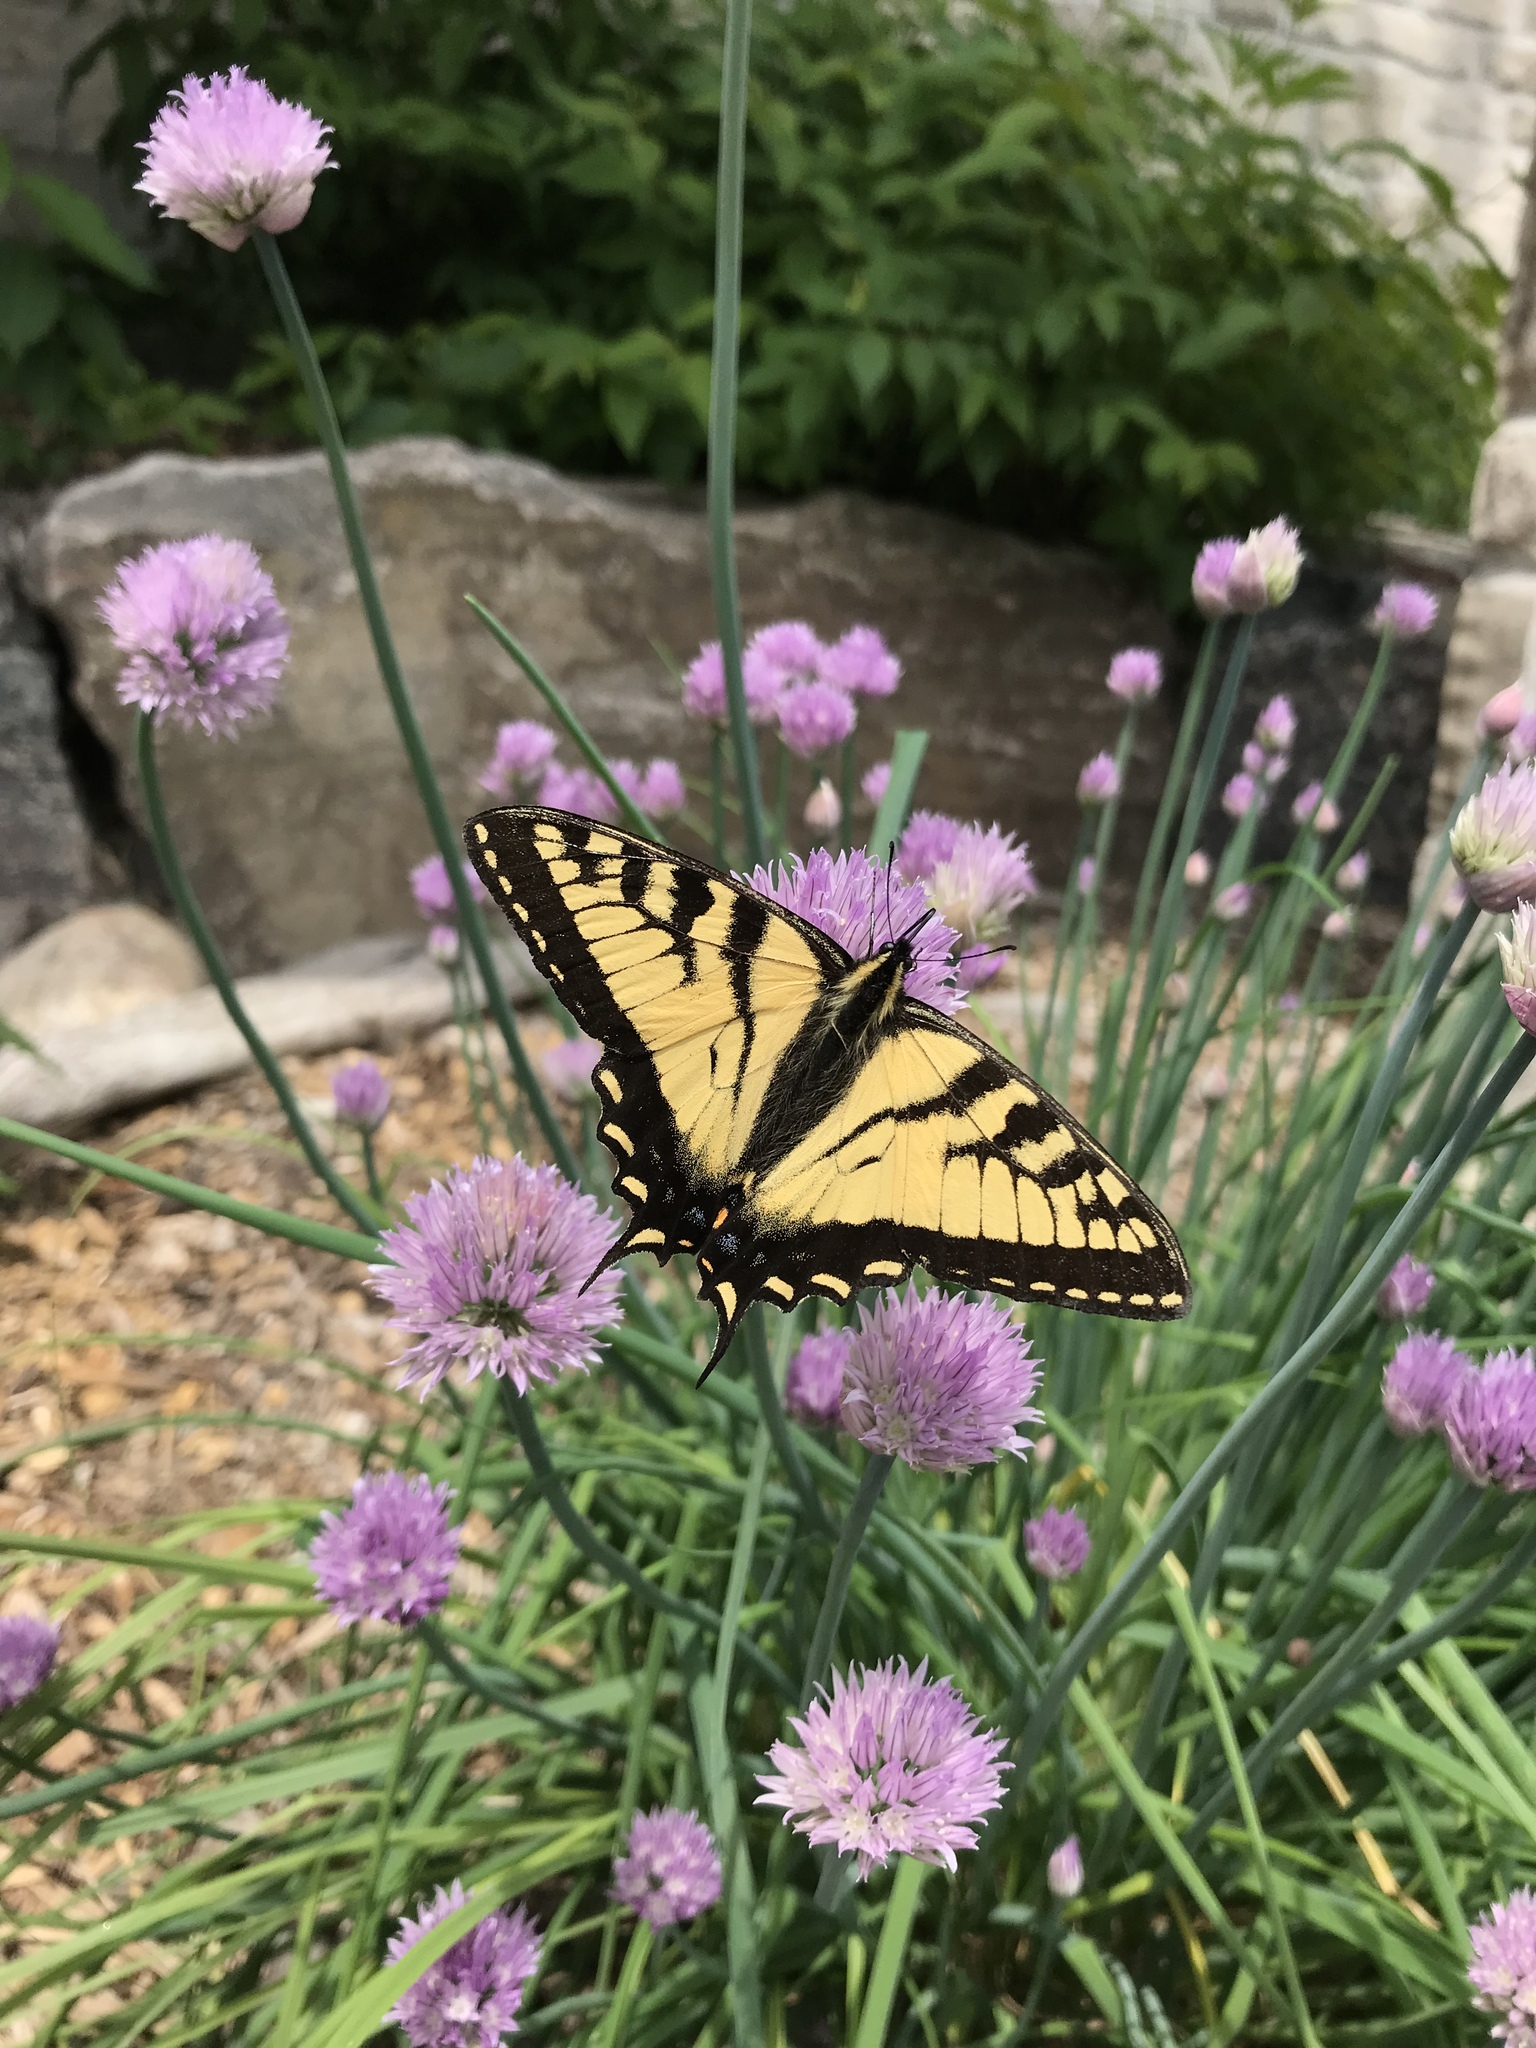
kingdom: Animalia
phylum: Arthropoda
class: Insecta
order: Lepidoptera
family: Papilionidae
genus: Papilio
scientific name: Papilio canadensis
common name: Canadian tiger swallowtail
